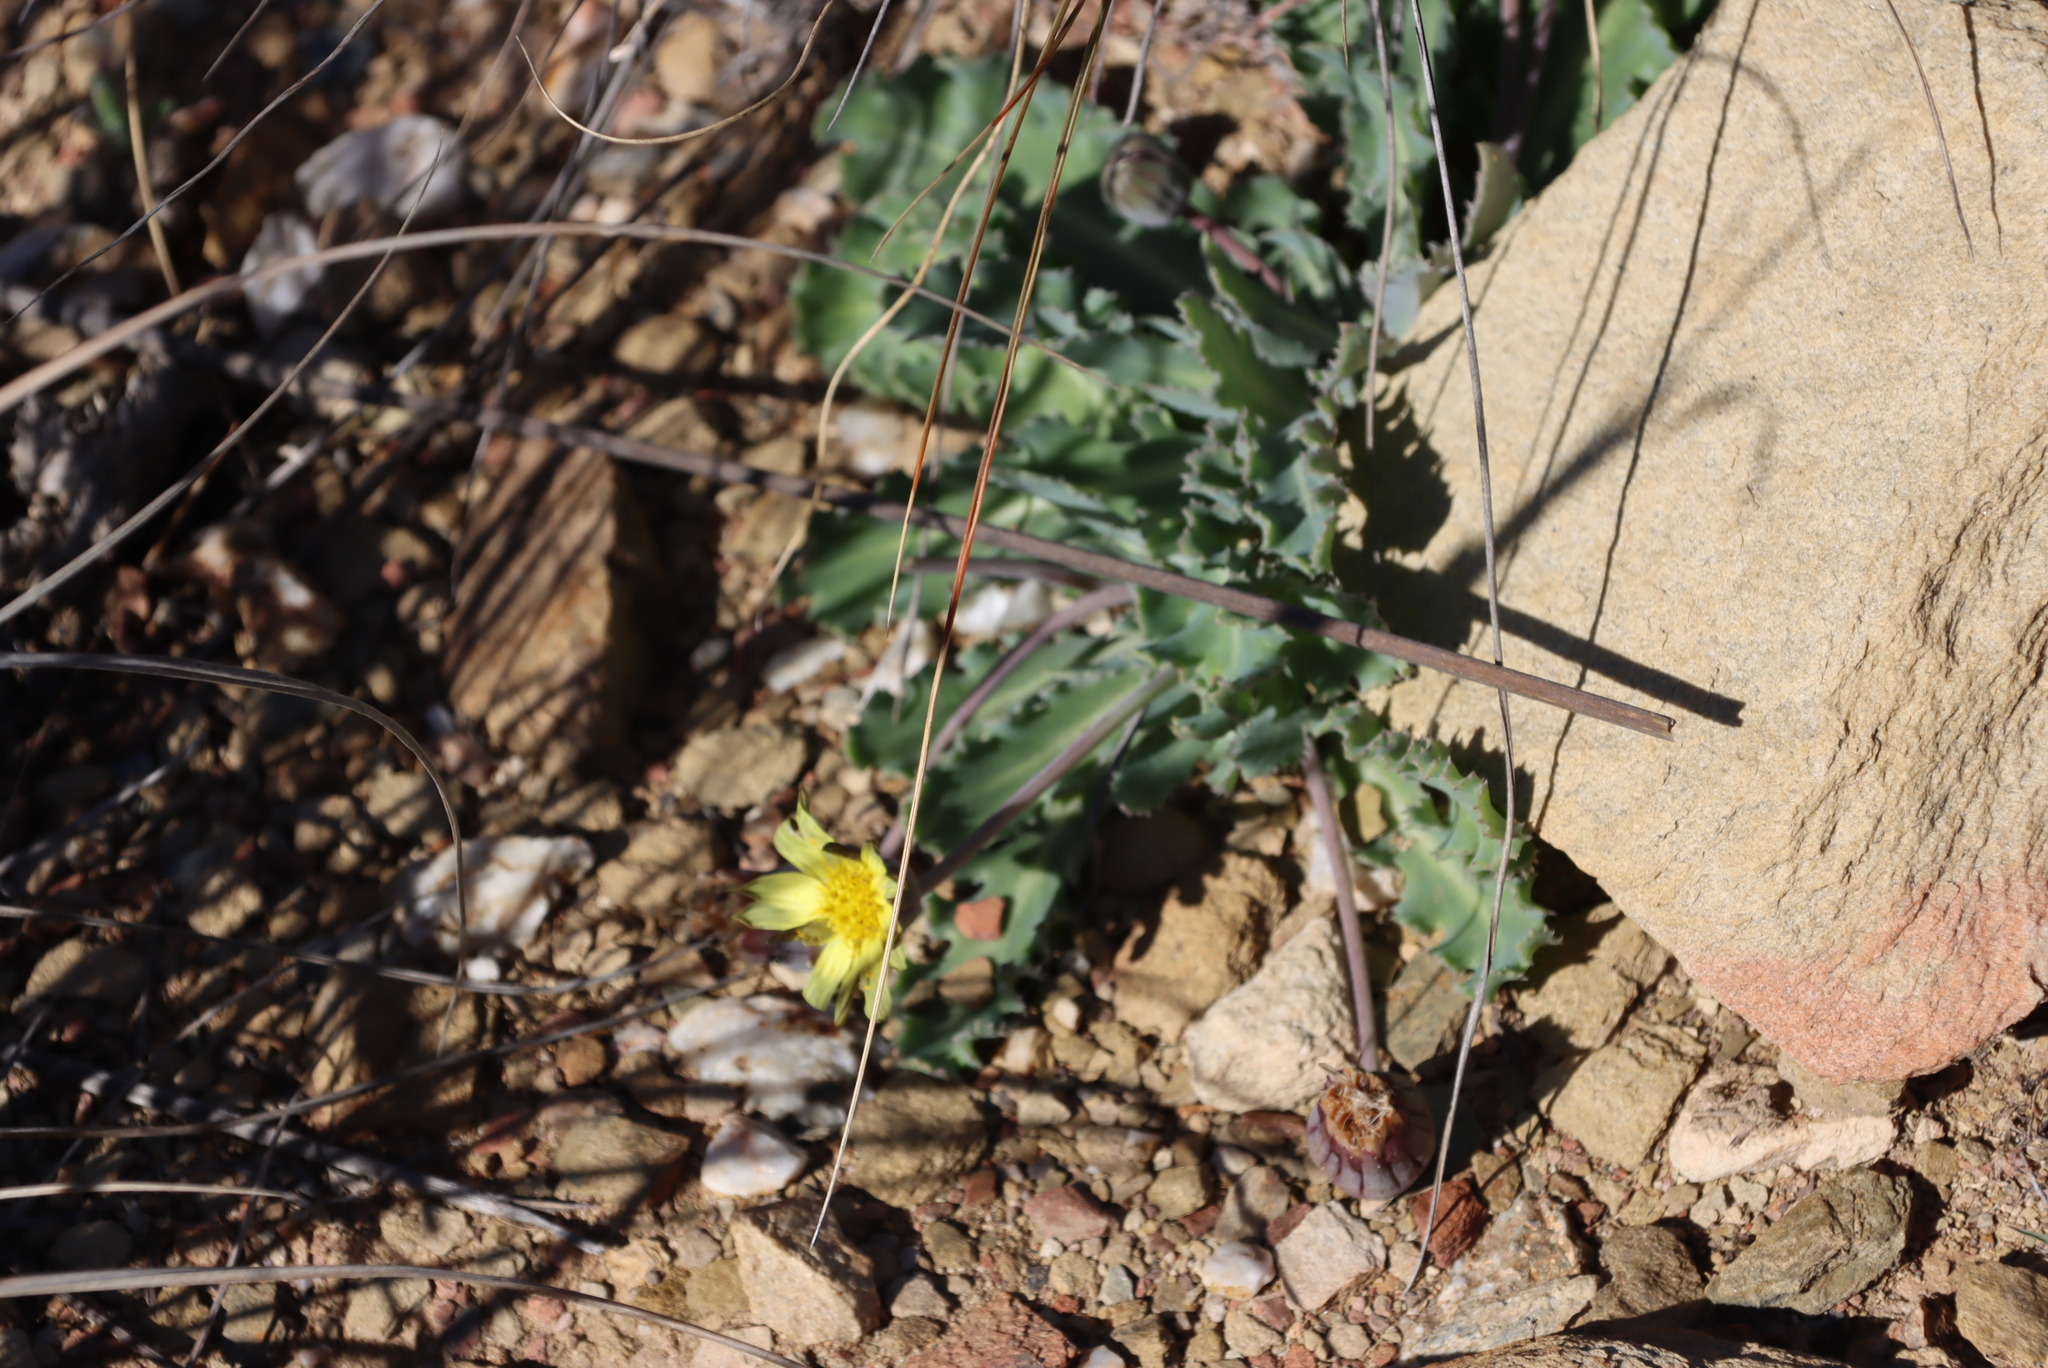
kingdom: Plantae
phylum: Tracheophyta
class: Magnoliopsida
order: Asterales
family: Asteraceae
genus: Othonna
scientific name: Othonna auriculifolia
